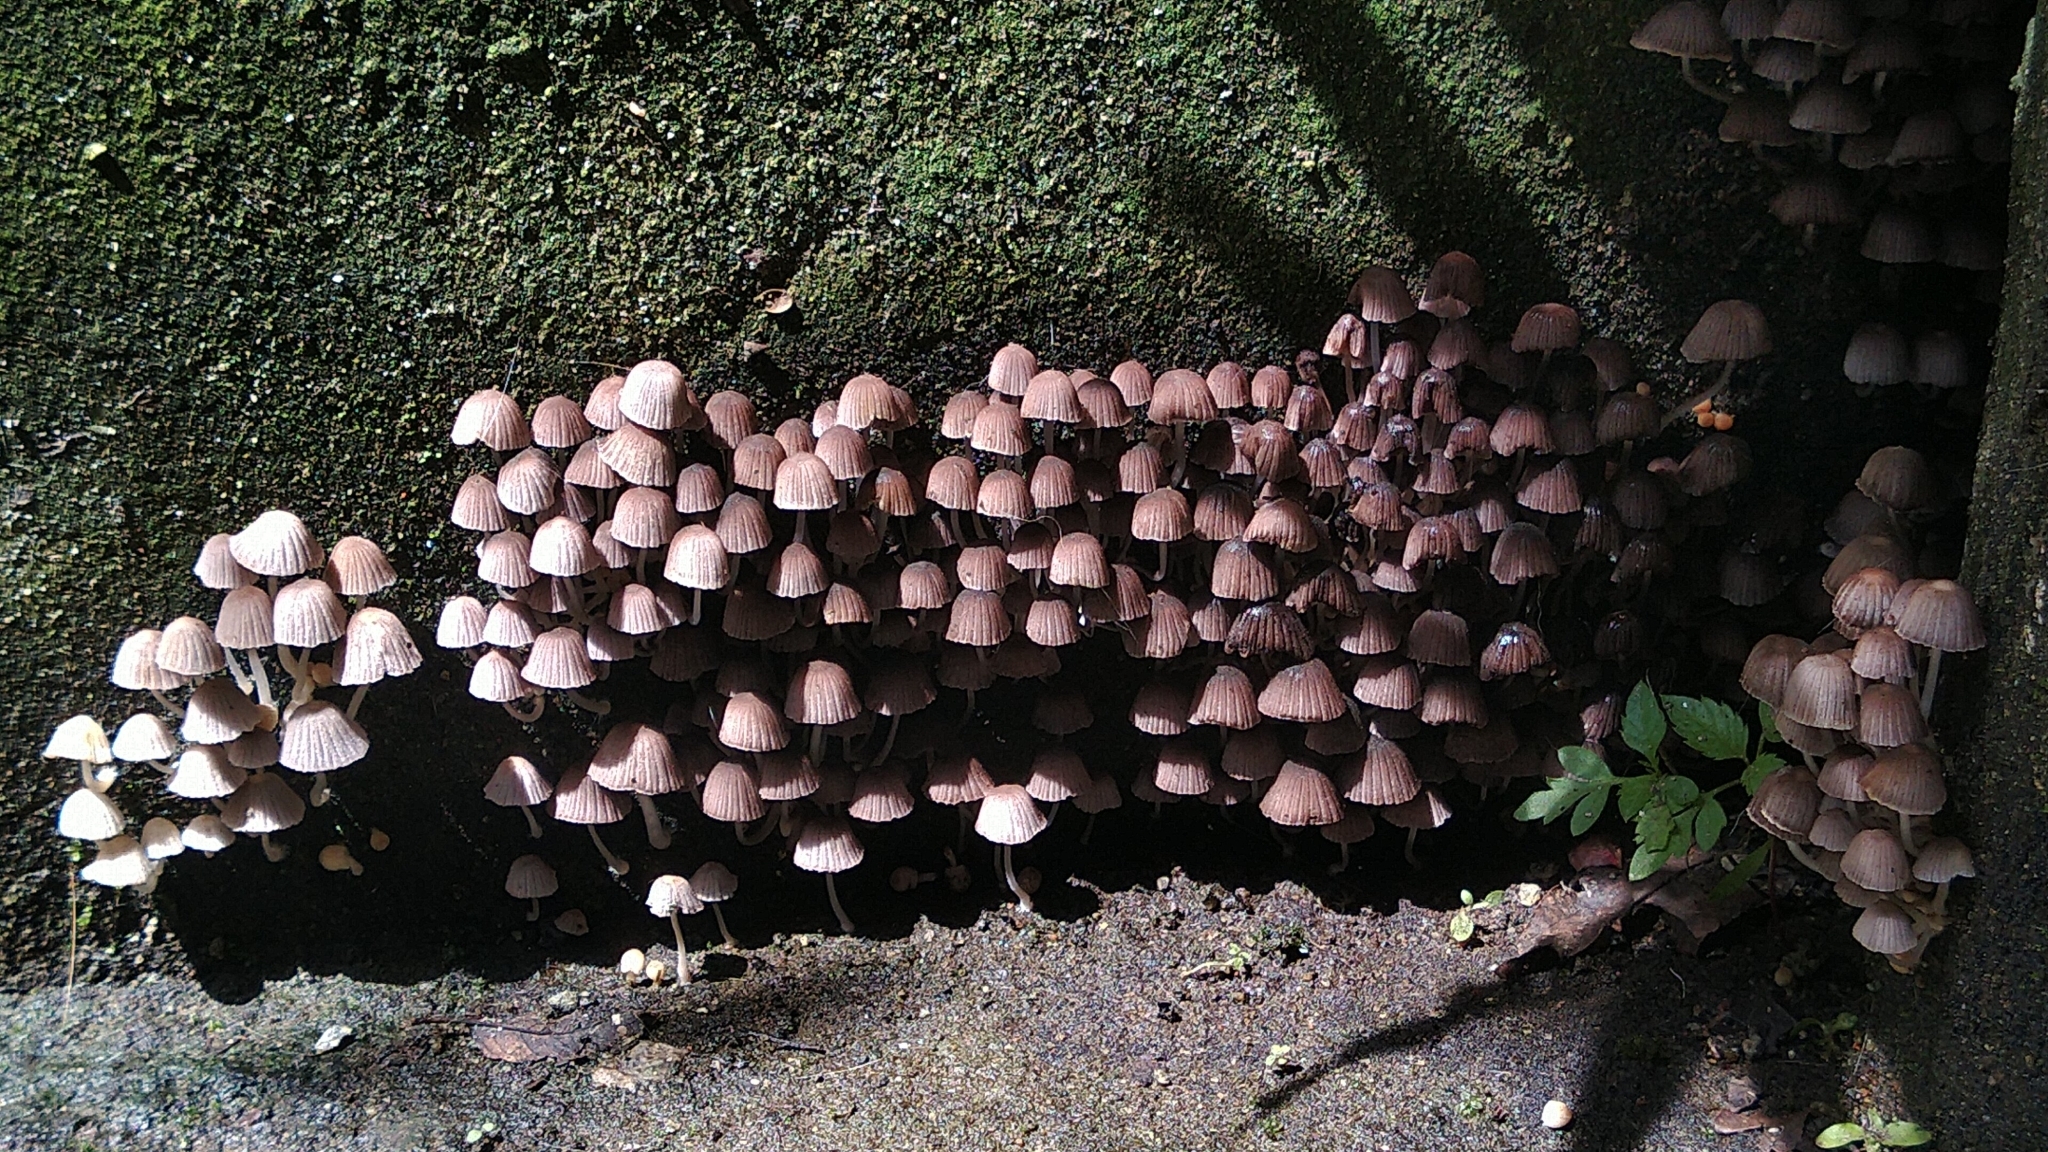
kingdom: Fungi
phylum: Basidiomycota
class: Agaricomycetes
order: Agaricales
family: Psathyrellaceae
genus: Coprinellus
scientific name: Coprinellus disseminatus
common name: Fairies' bonnets
